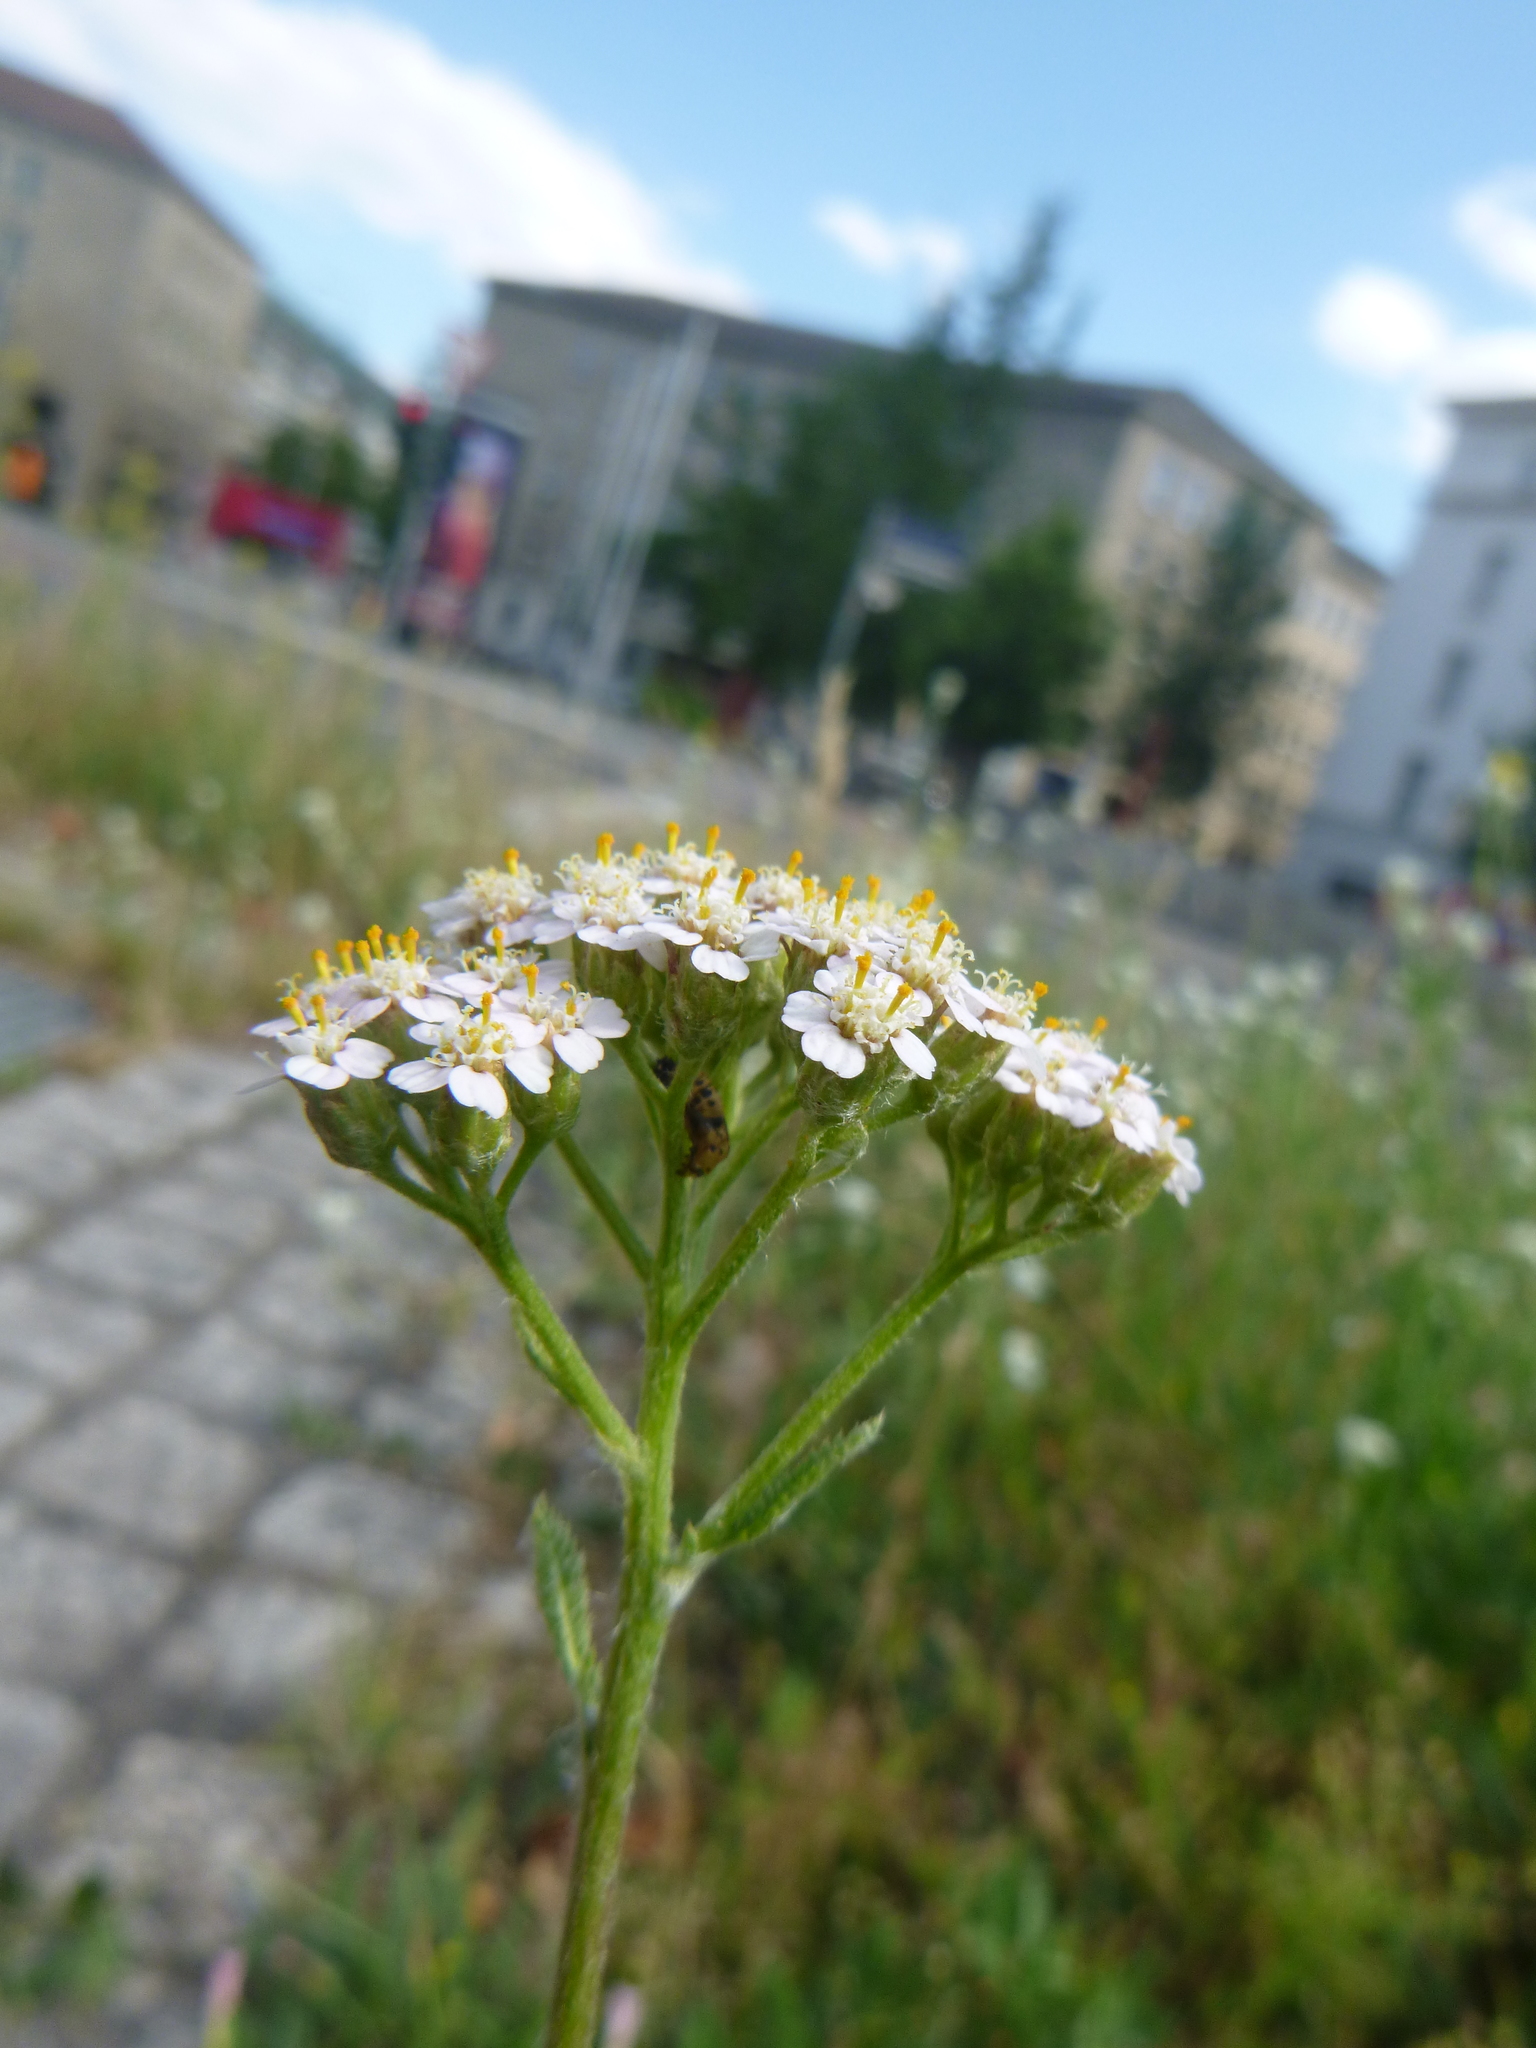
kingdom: Plantae
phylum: Tracheophyta
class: Magnoliopsida
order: Asterales
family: Asteraceae
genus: Achillea
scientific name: Achillea millefolium
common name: Yarrow
